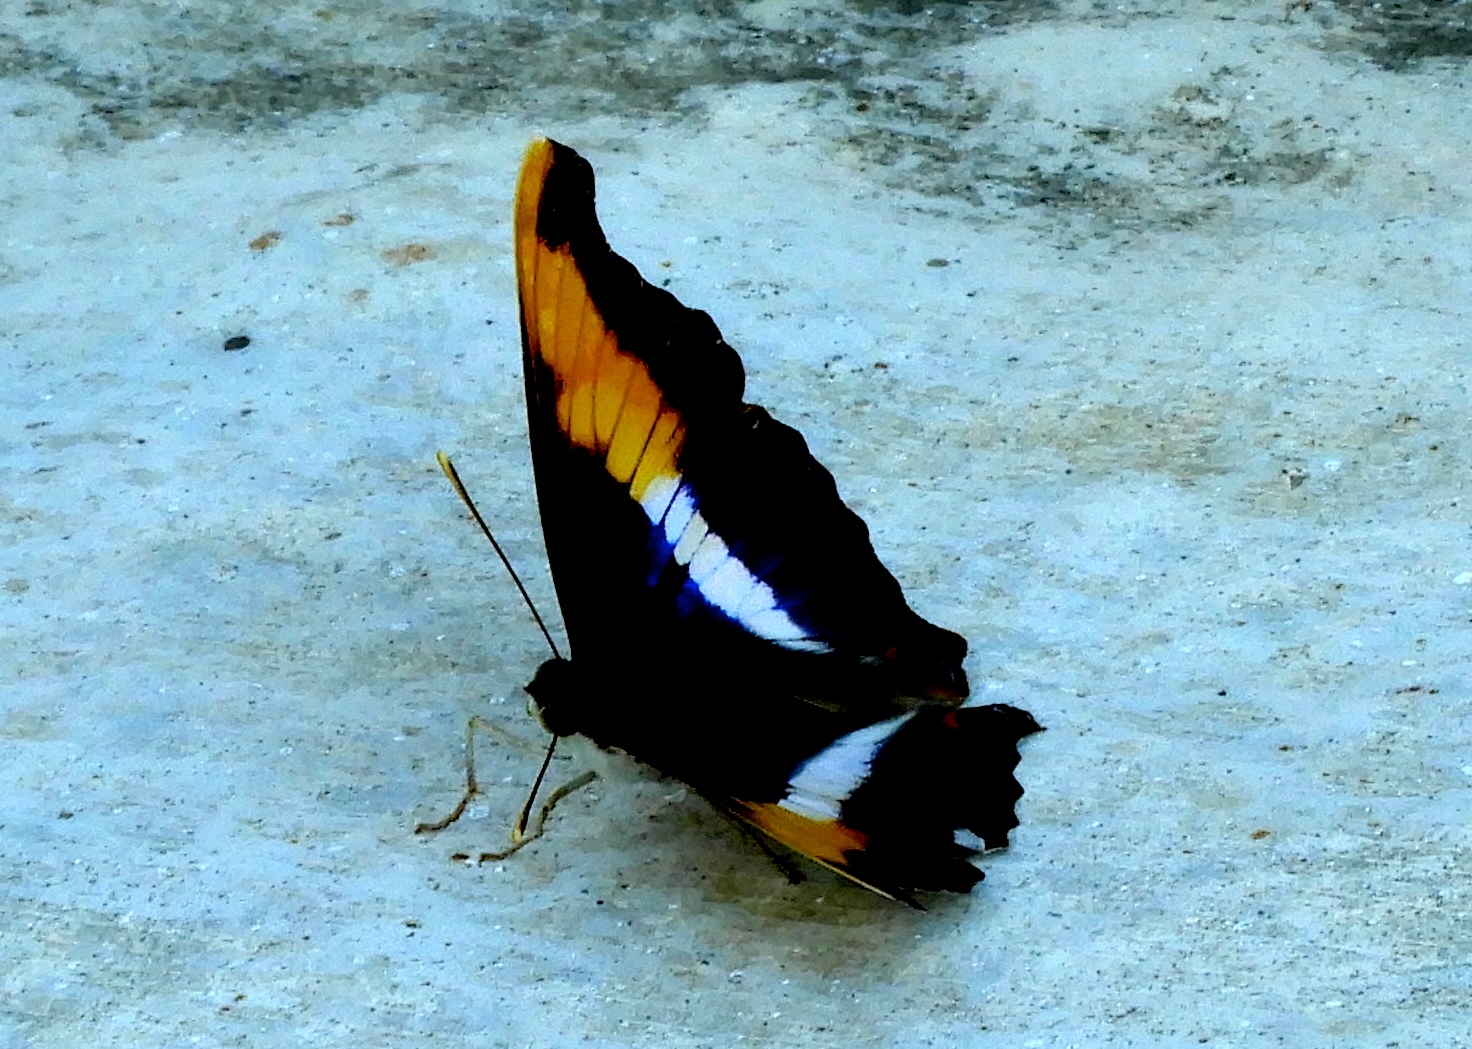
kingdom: Animalia
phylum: Arthropoda
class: Insecta
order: Lepidoptera
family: Nymphalidae
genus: Doxocopa
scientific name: Doxocopa laure
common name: Silver emperor
